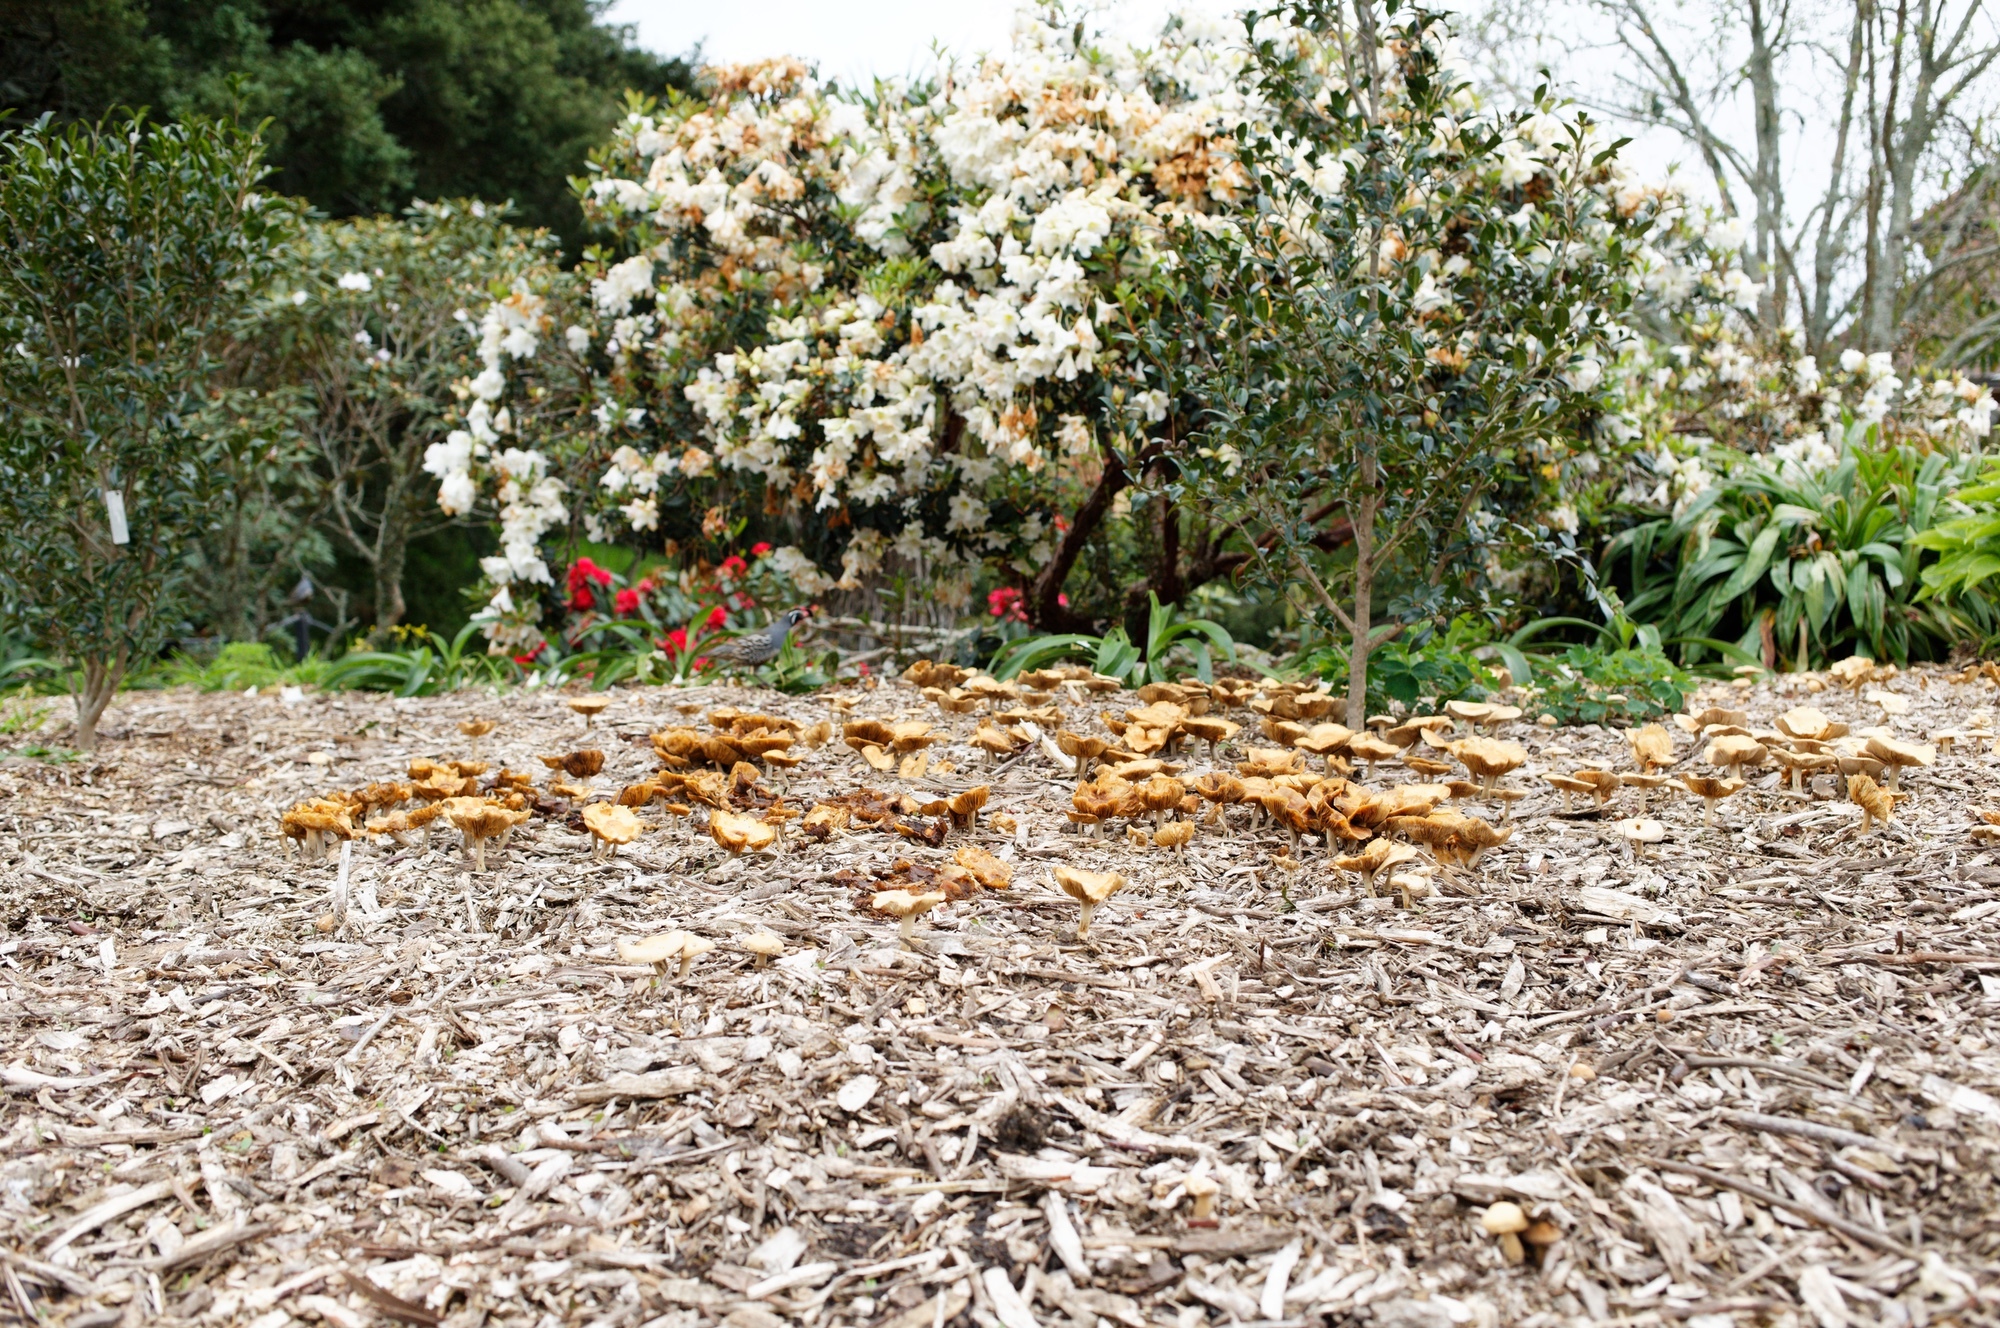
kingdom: Animalia
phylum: Chordata
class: Aves
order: Galliformes
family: Odontophoridae
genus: Callipepla
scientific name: Callipepla californica
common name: California quail
